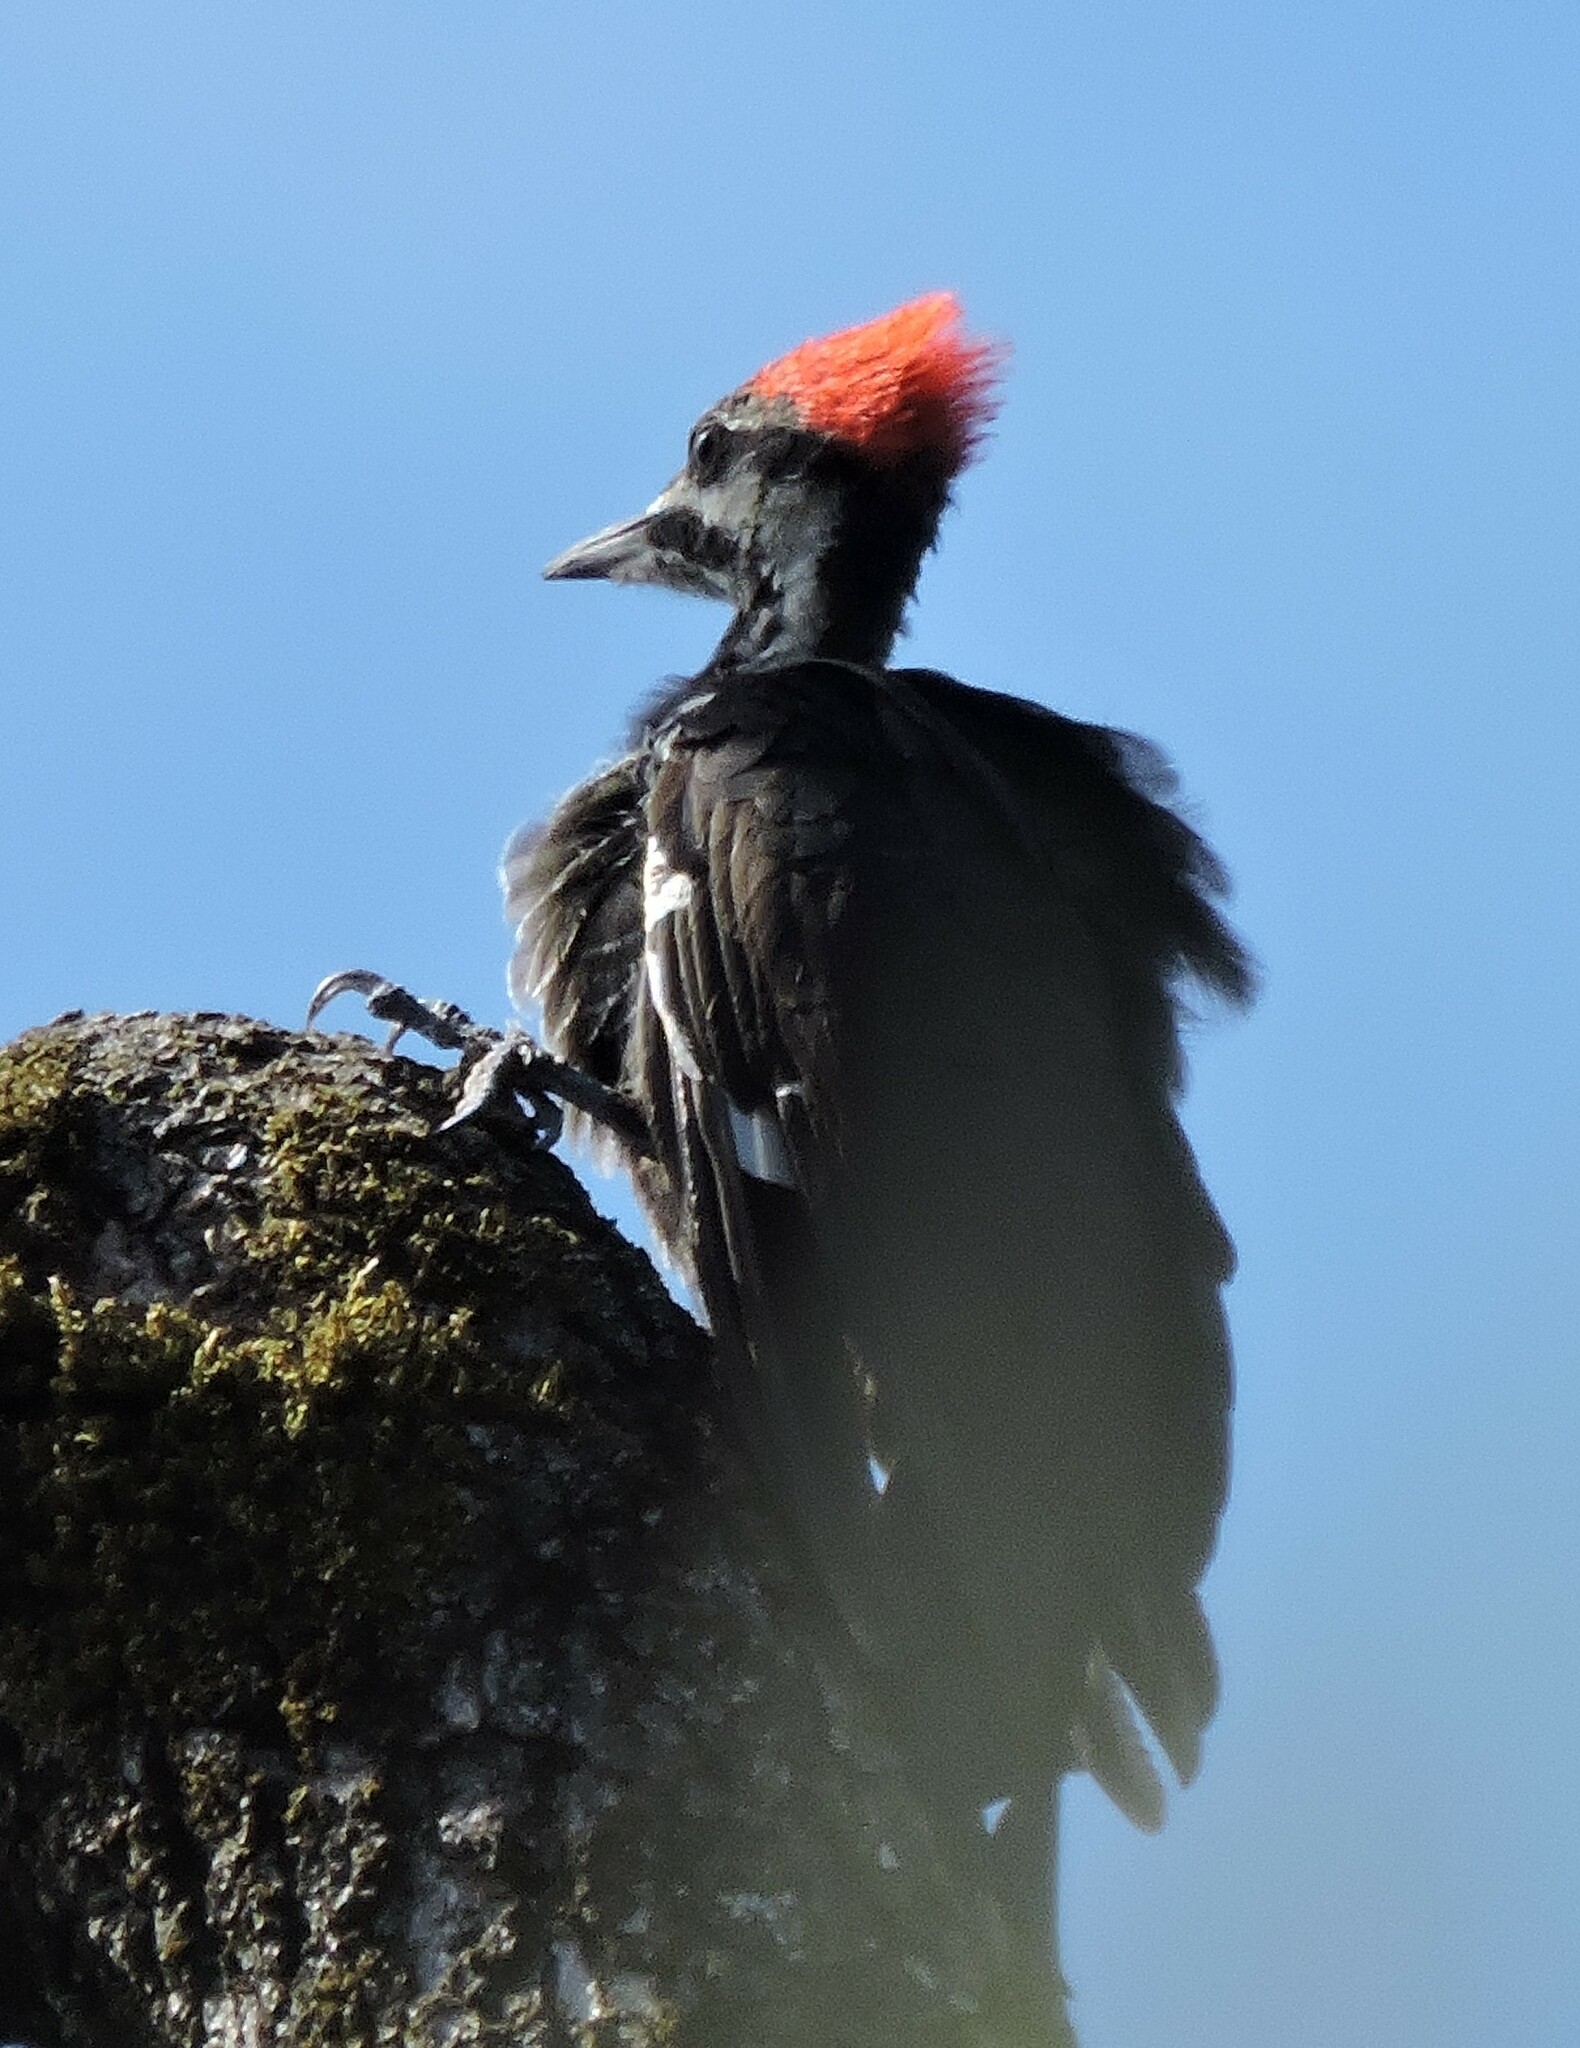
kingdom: Animalia
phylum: Chordata
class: Aves
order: Piciformes
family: Picidae
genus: Dryocopus
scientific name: Dryocopus pileatus
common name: Pileated woodpecker
